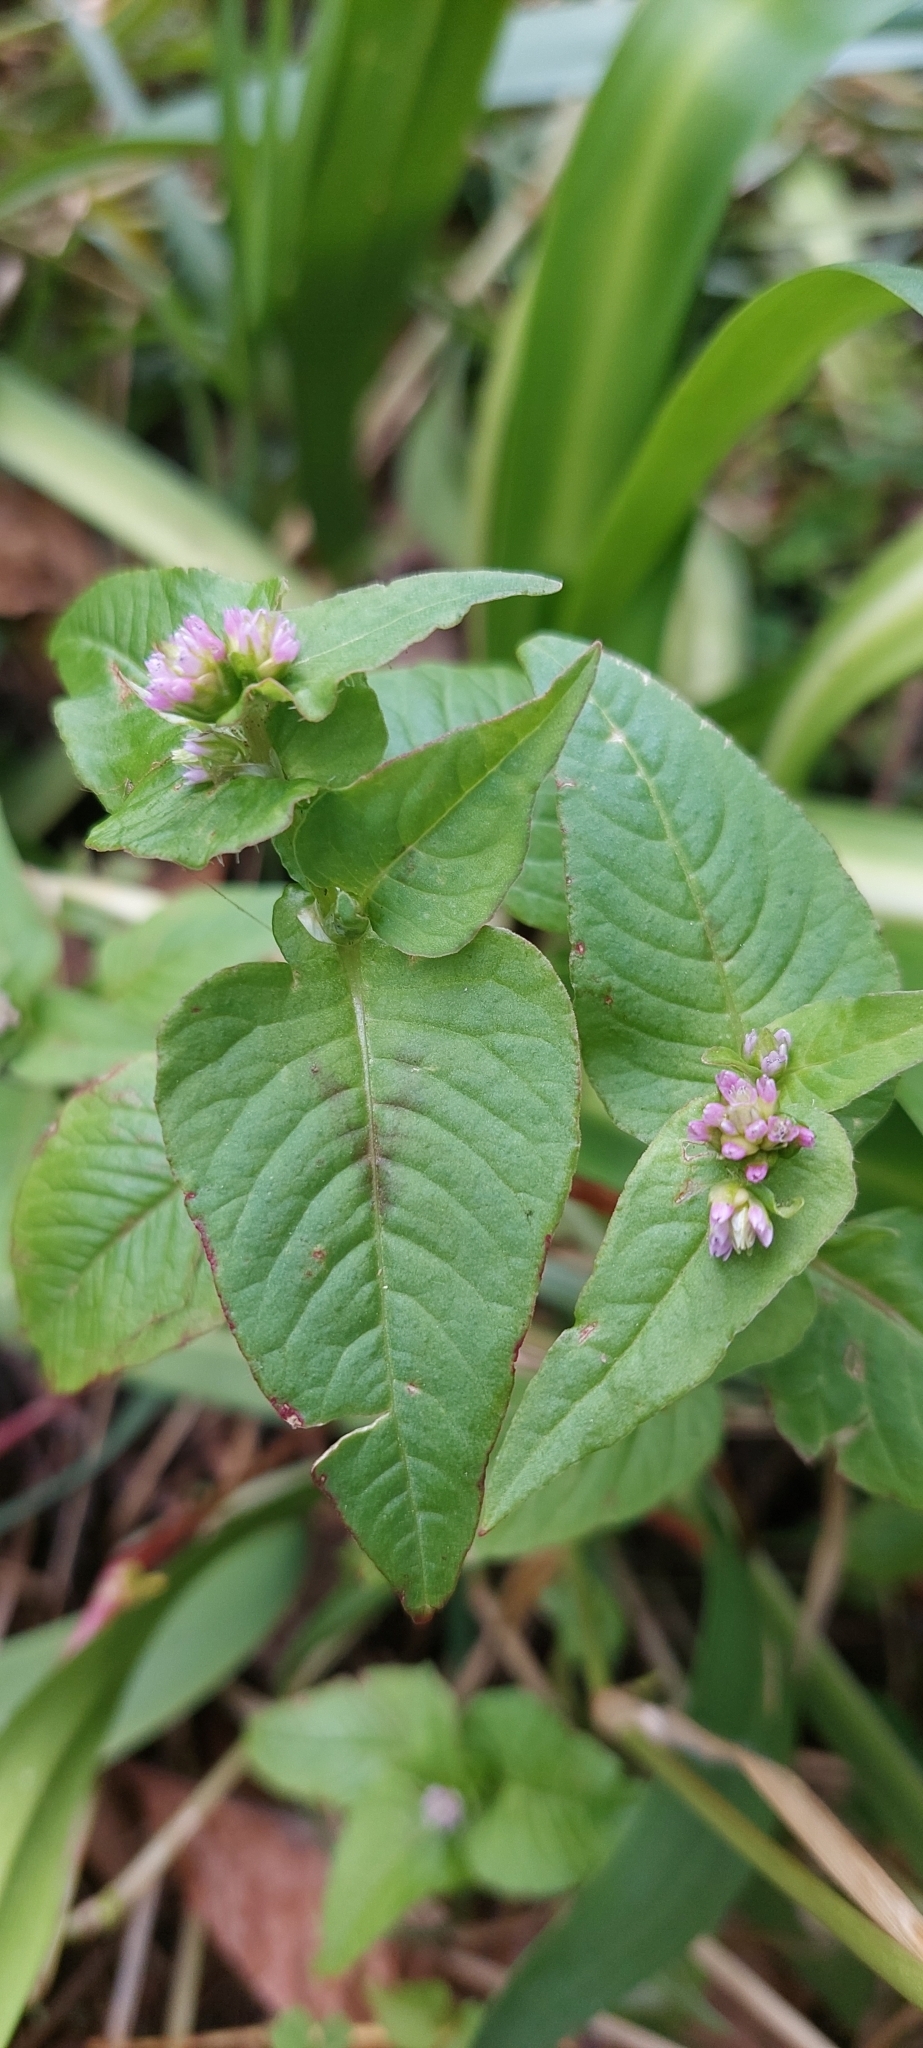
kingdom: Plantae
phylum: Tracheophyta
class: Magnoliopsida
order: Caryophyllales
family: Polygonaceae
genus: Persicaria
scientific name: Persicaria nepalensis
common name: Nepal persicaria
